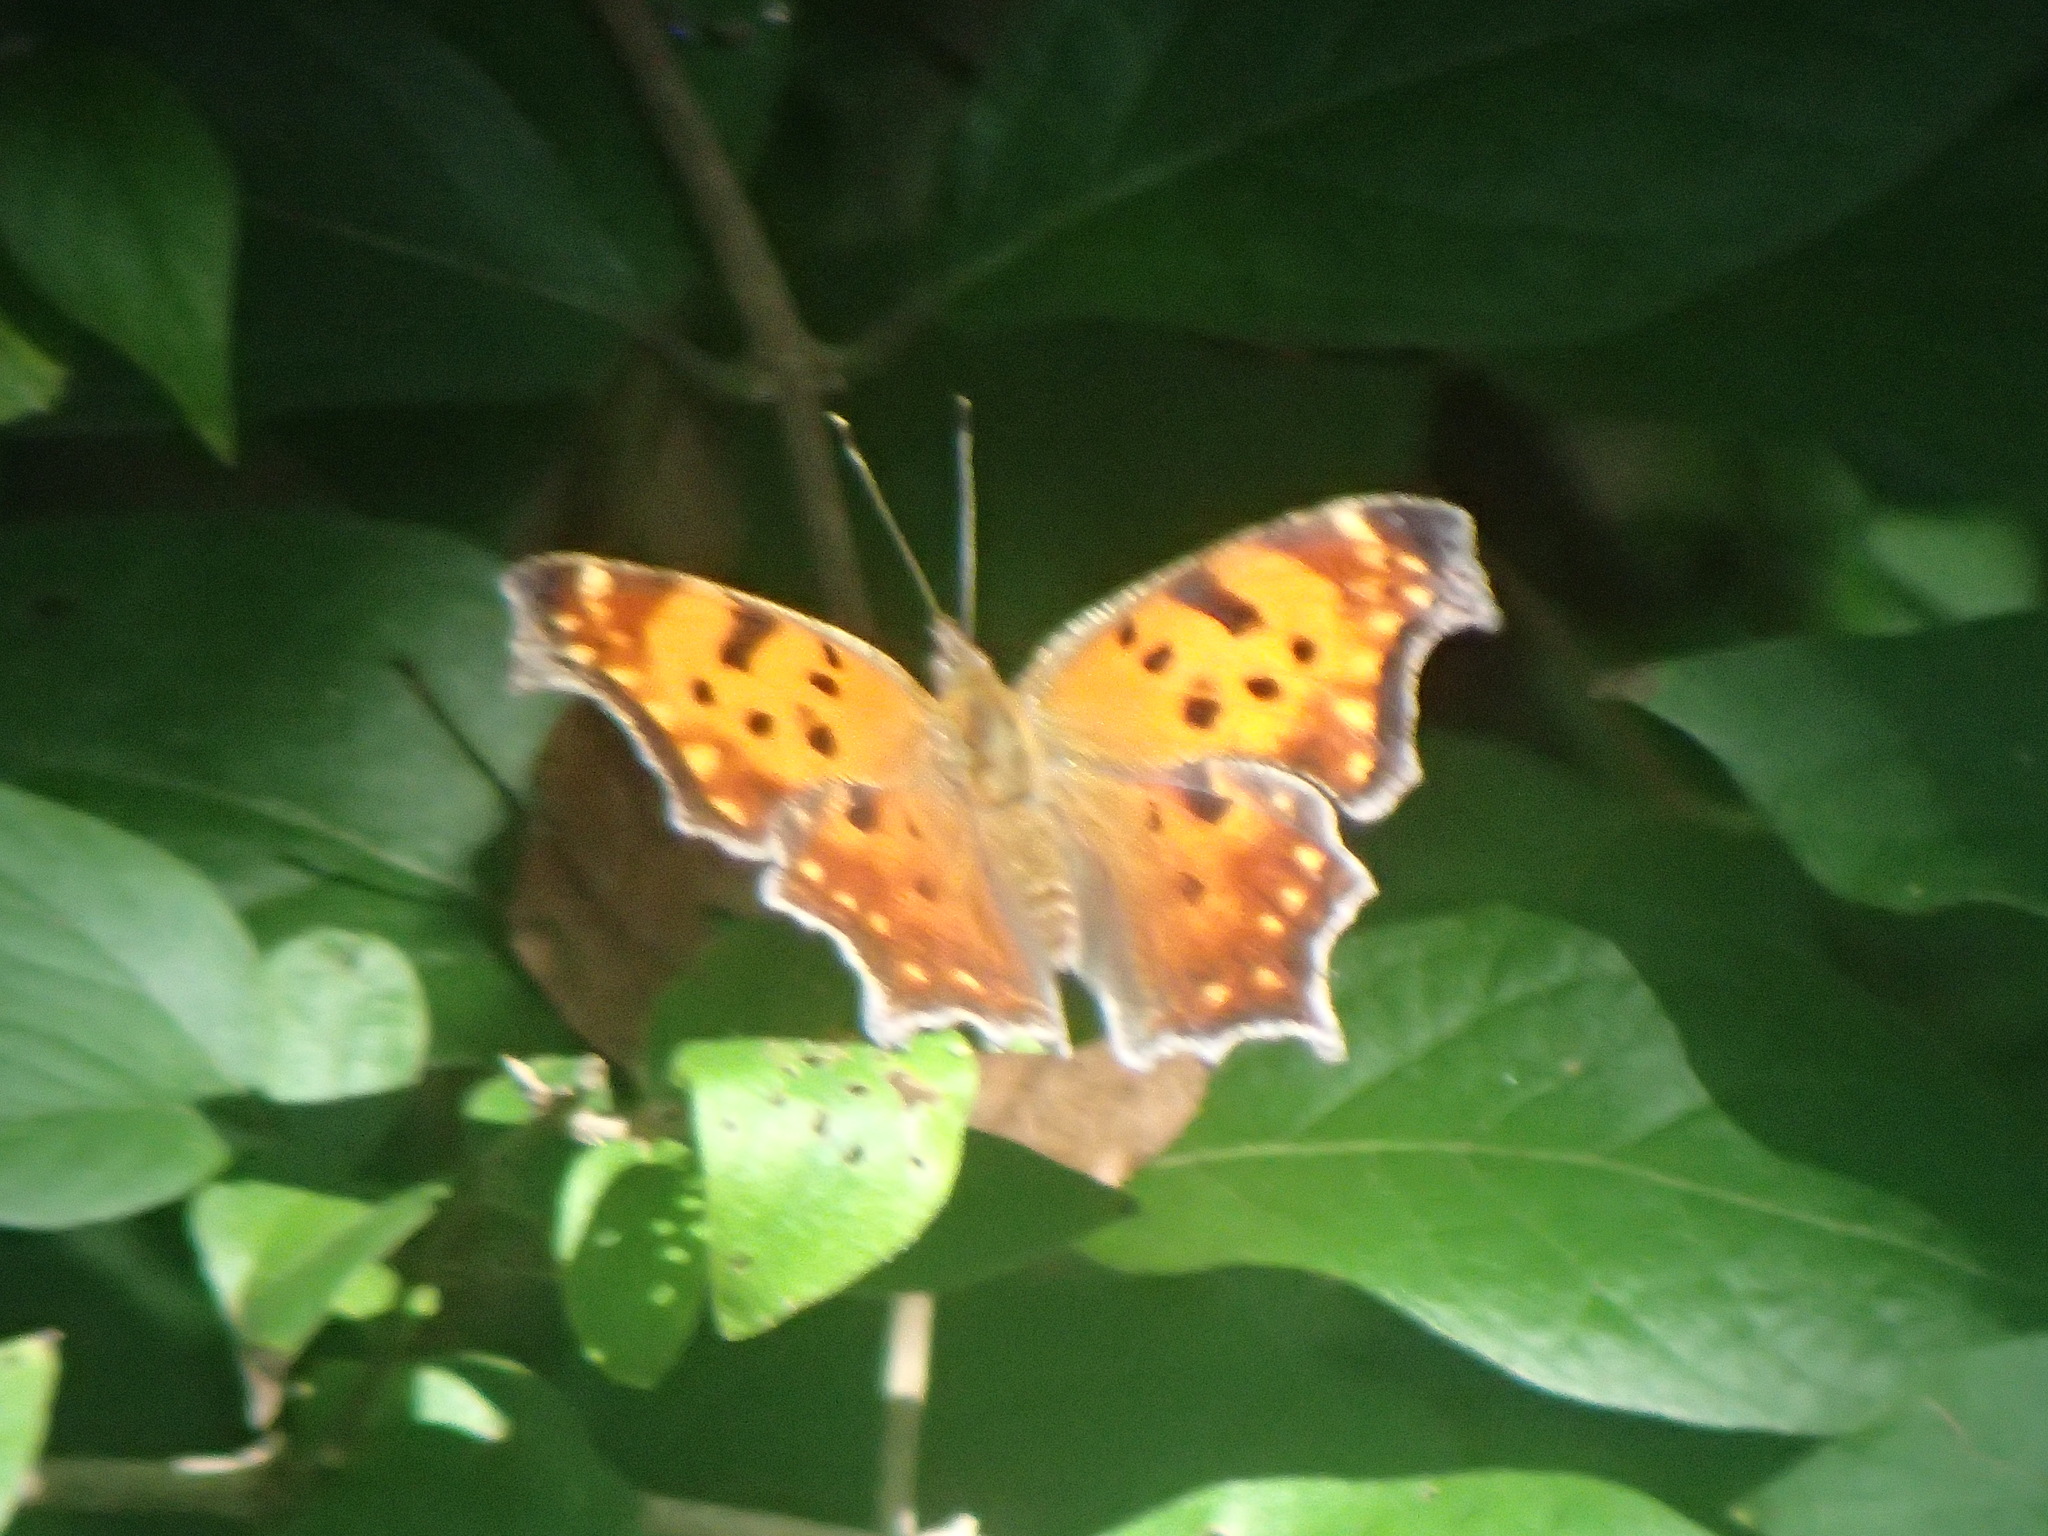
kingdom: Animalia
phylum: Arthropoda
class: Insecta
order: Lepidoptera
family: Nymphalidae
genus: Polygonia
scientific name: Polygonia comma
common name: Eastern comma
